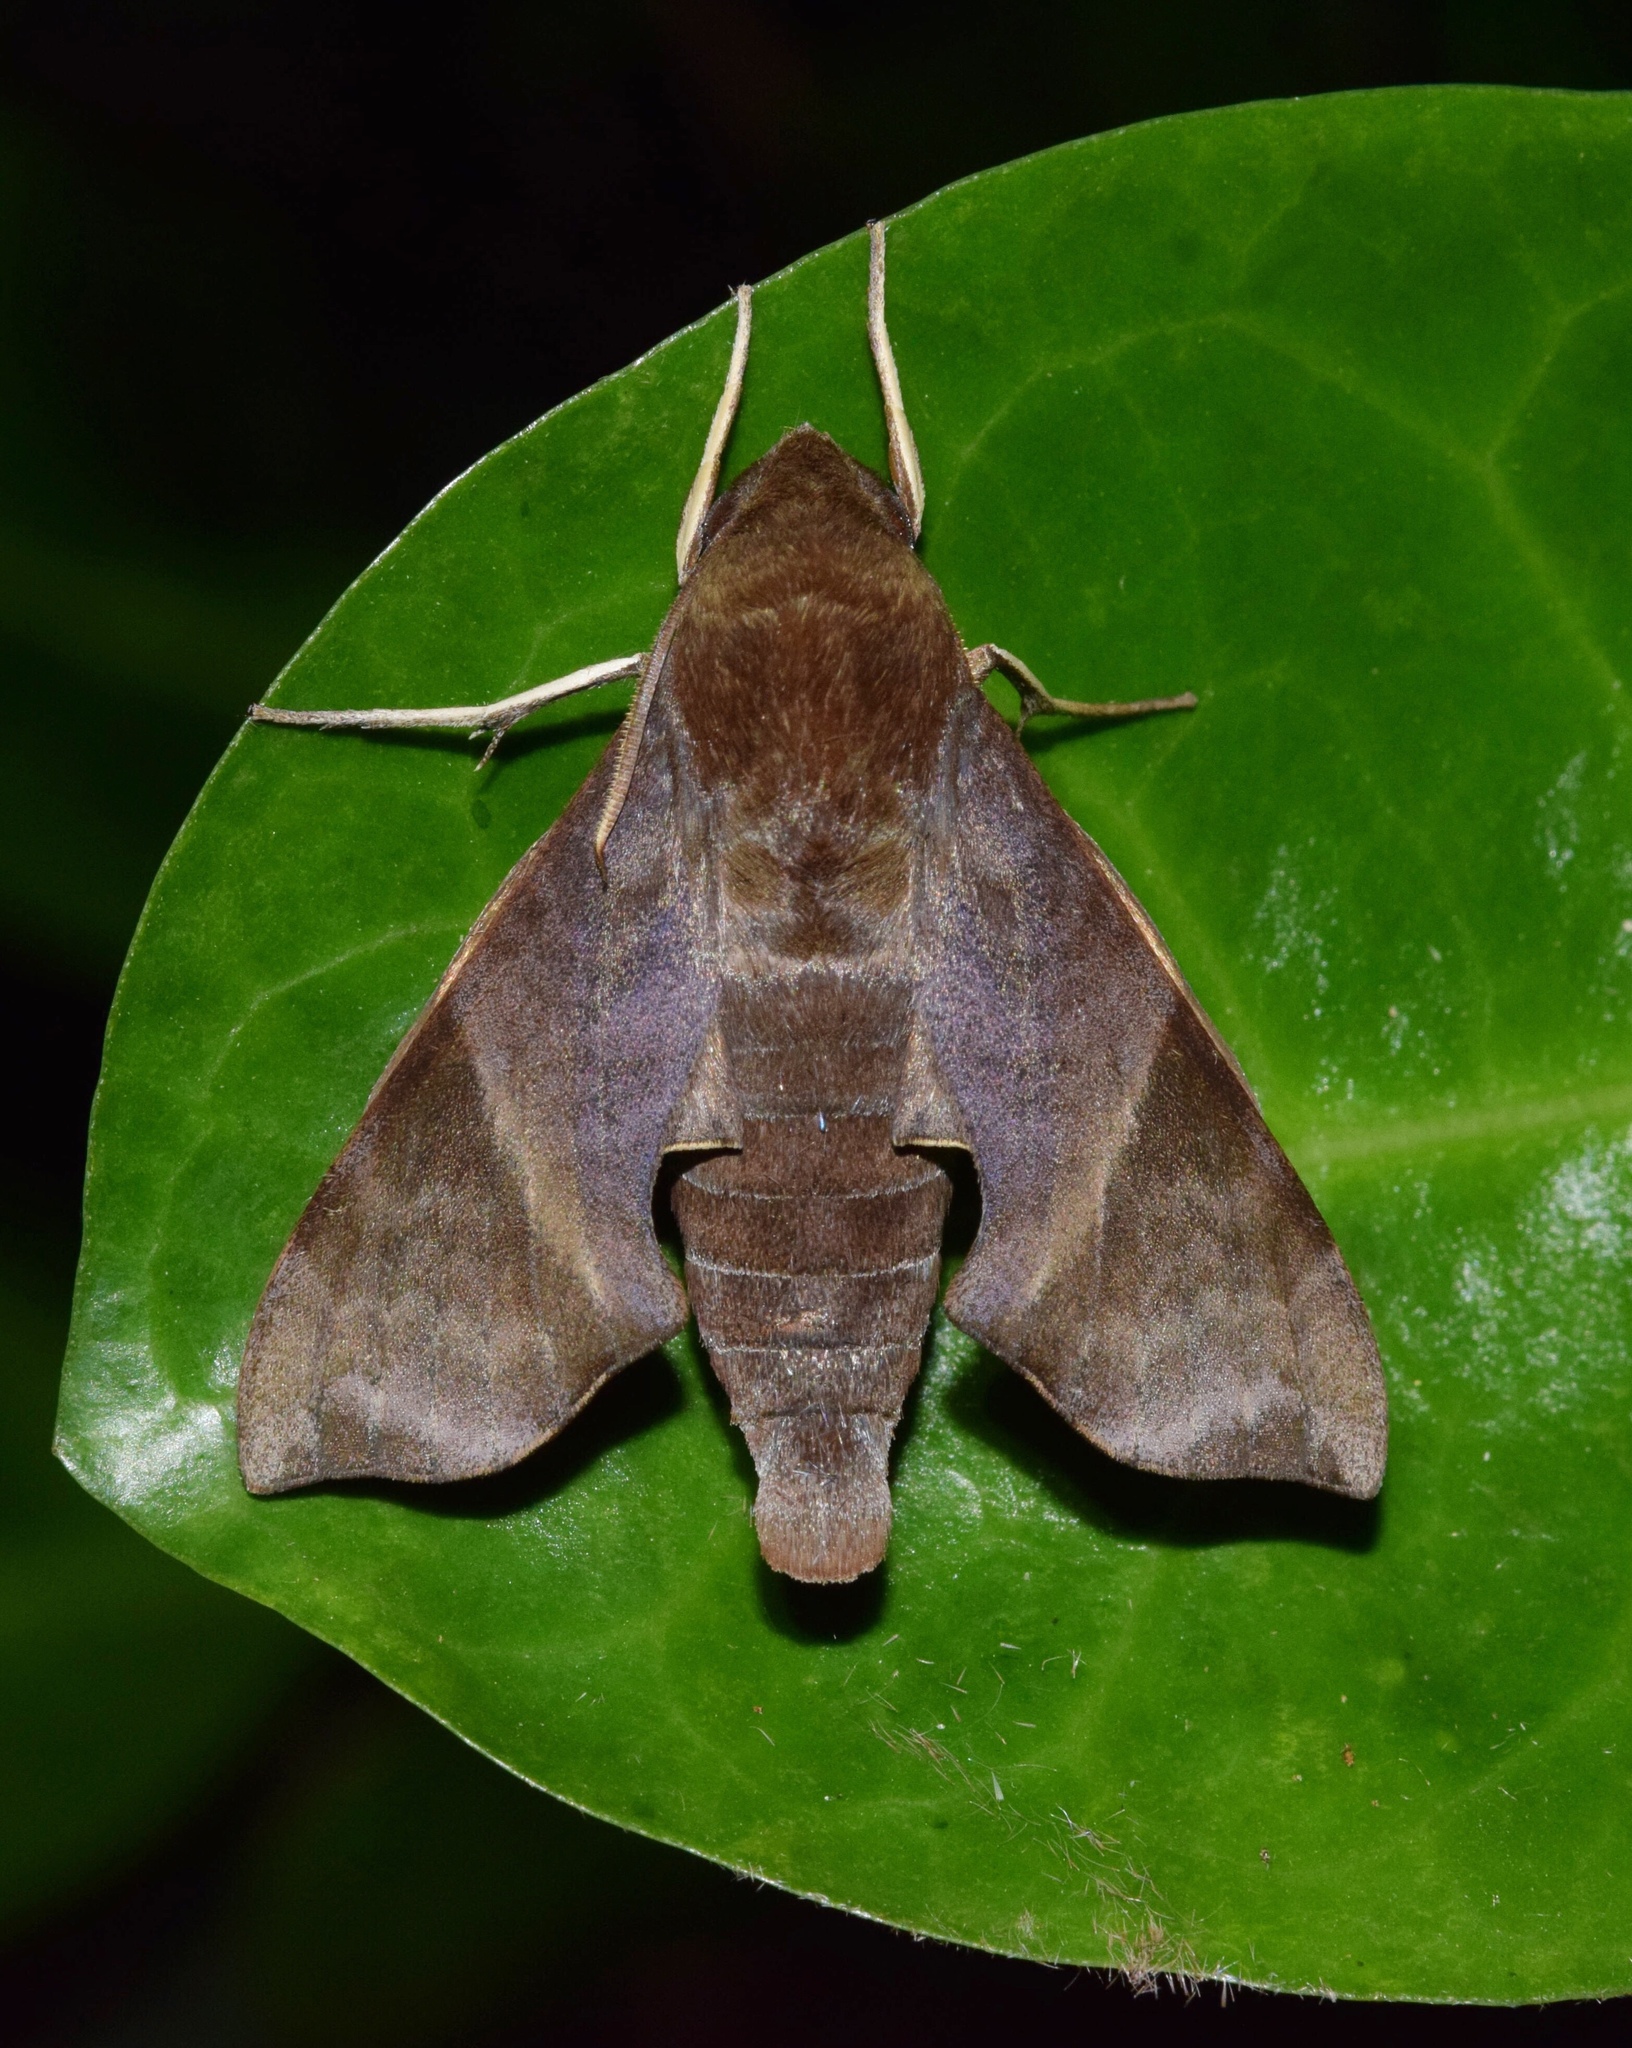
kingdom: Animalia
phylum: Arthropoda
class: Insecta
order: Lepidoptera
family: Sphingidae
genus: Temnora
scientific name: Temnora marginata
